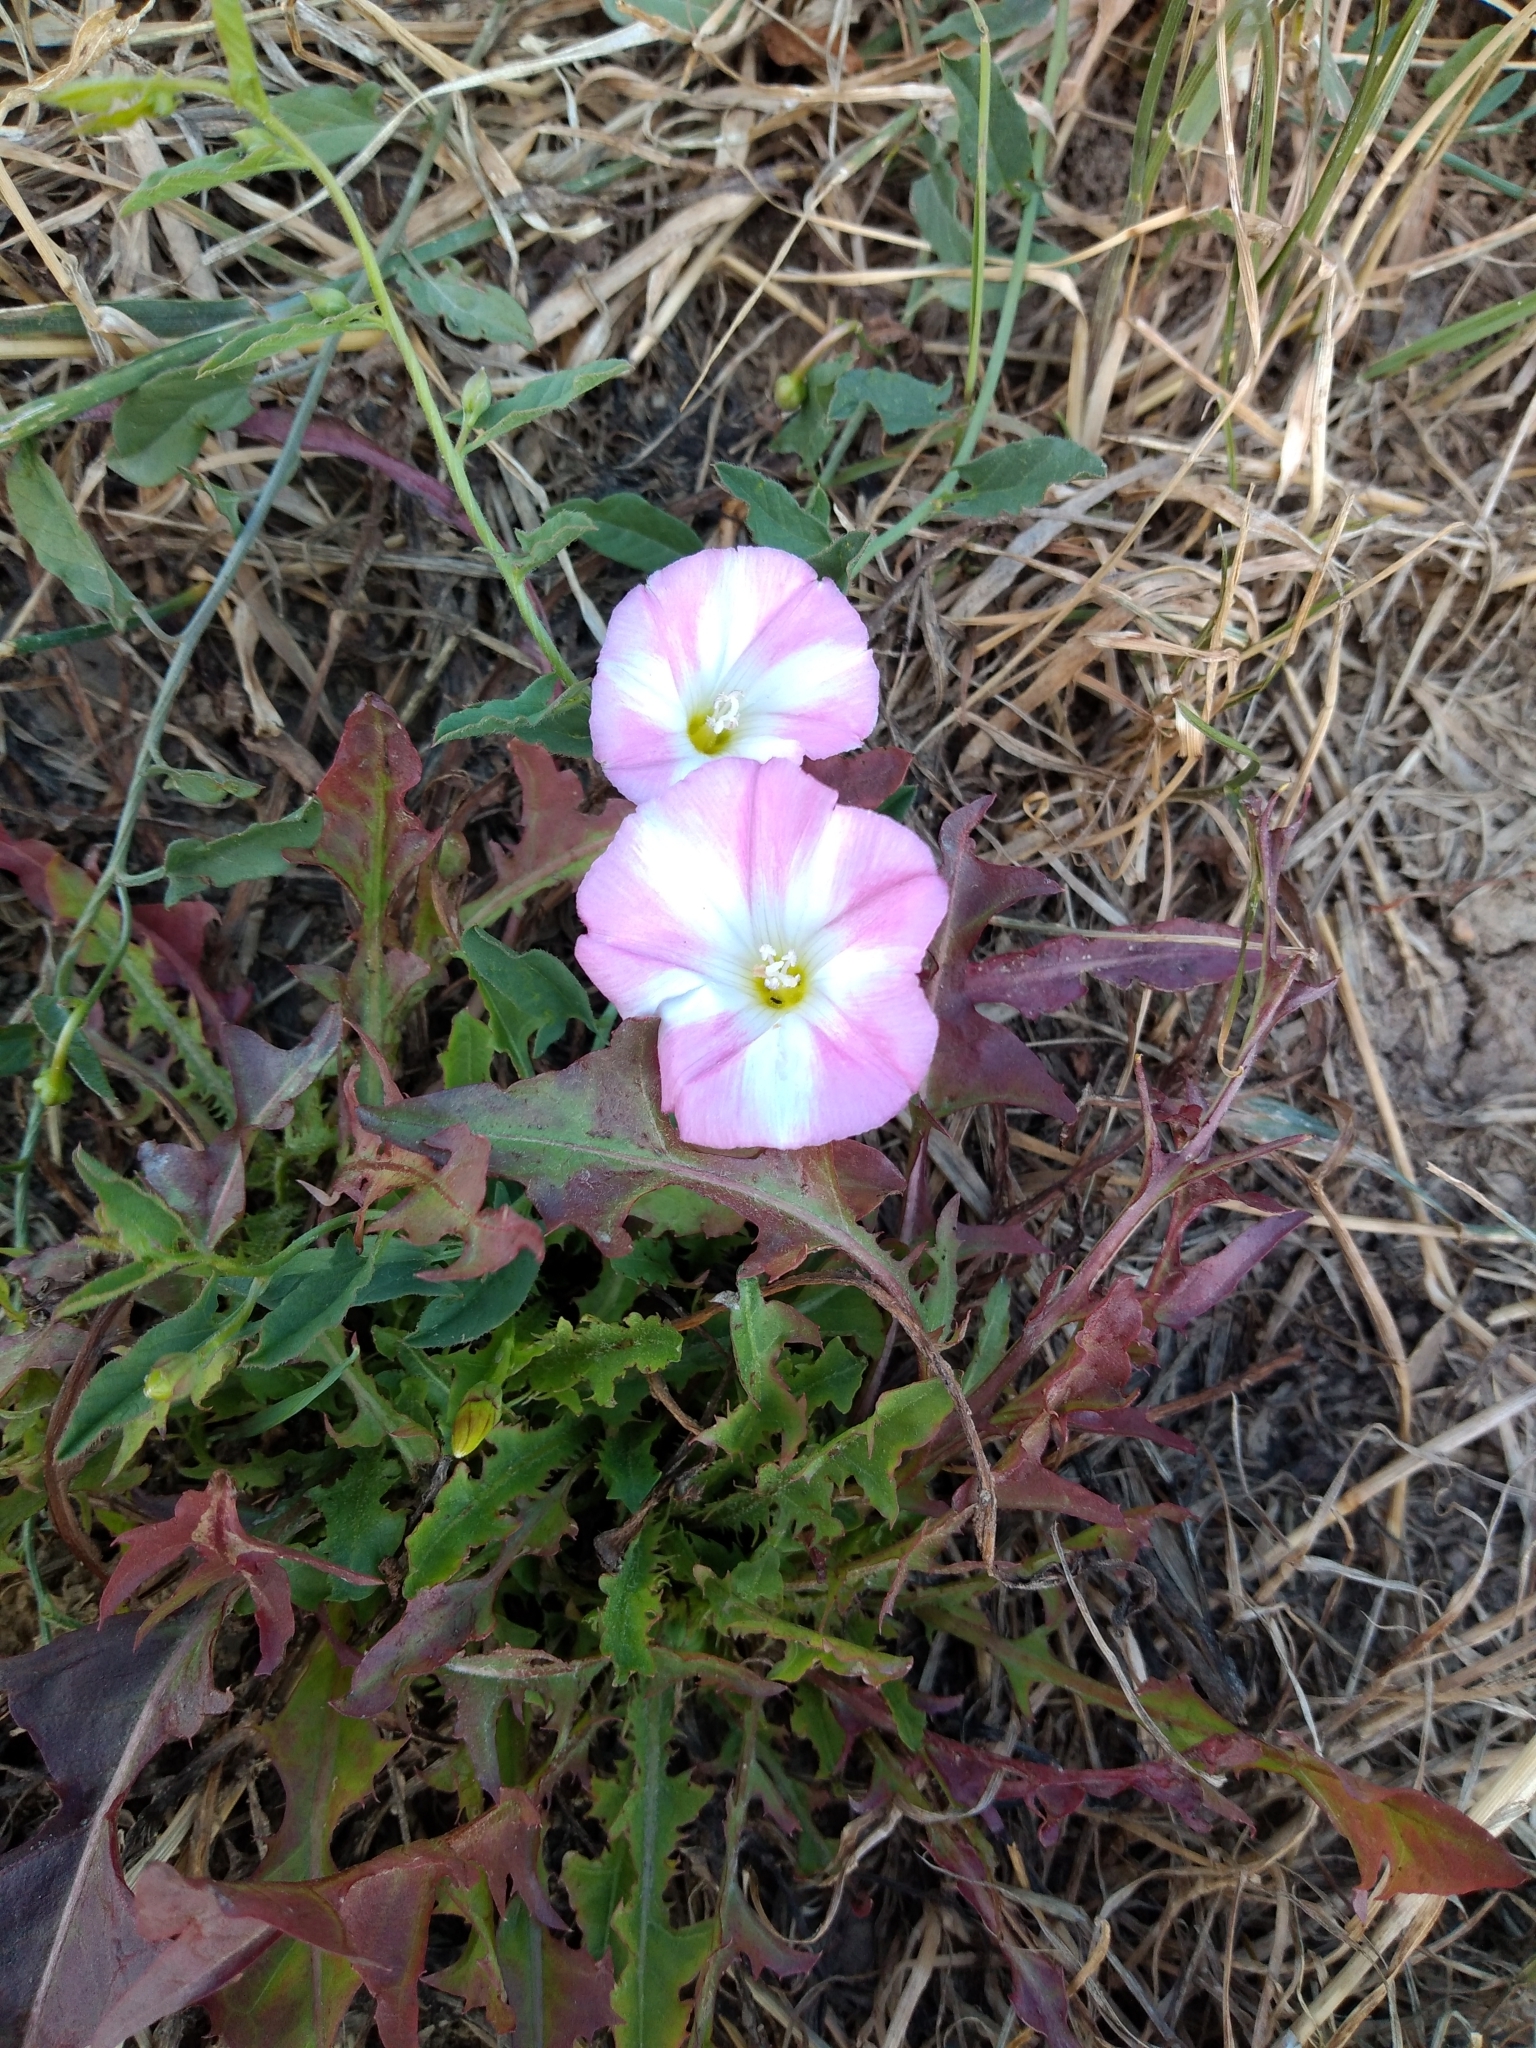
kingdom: Plantae
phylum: Tracheophyta
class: Magnoliopsida
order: Solanales
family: Convolvulaceae
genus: Convolvulus
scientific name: Convolvulus arvensis
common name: Field bindweed
